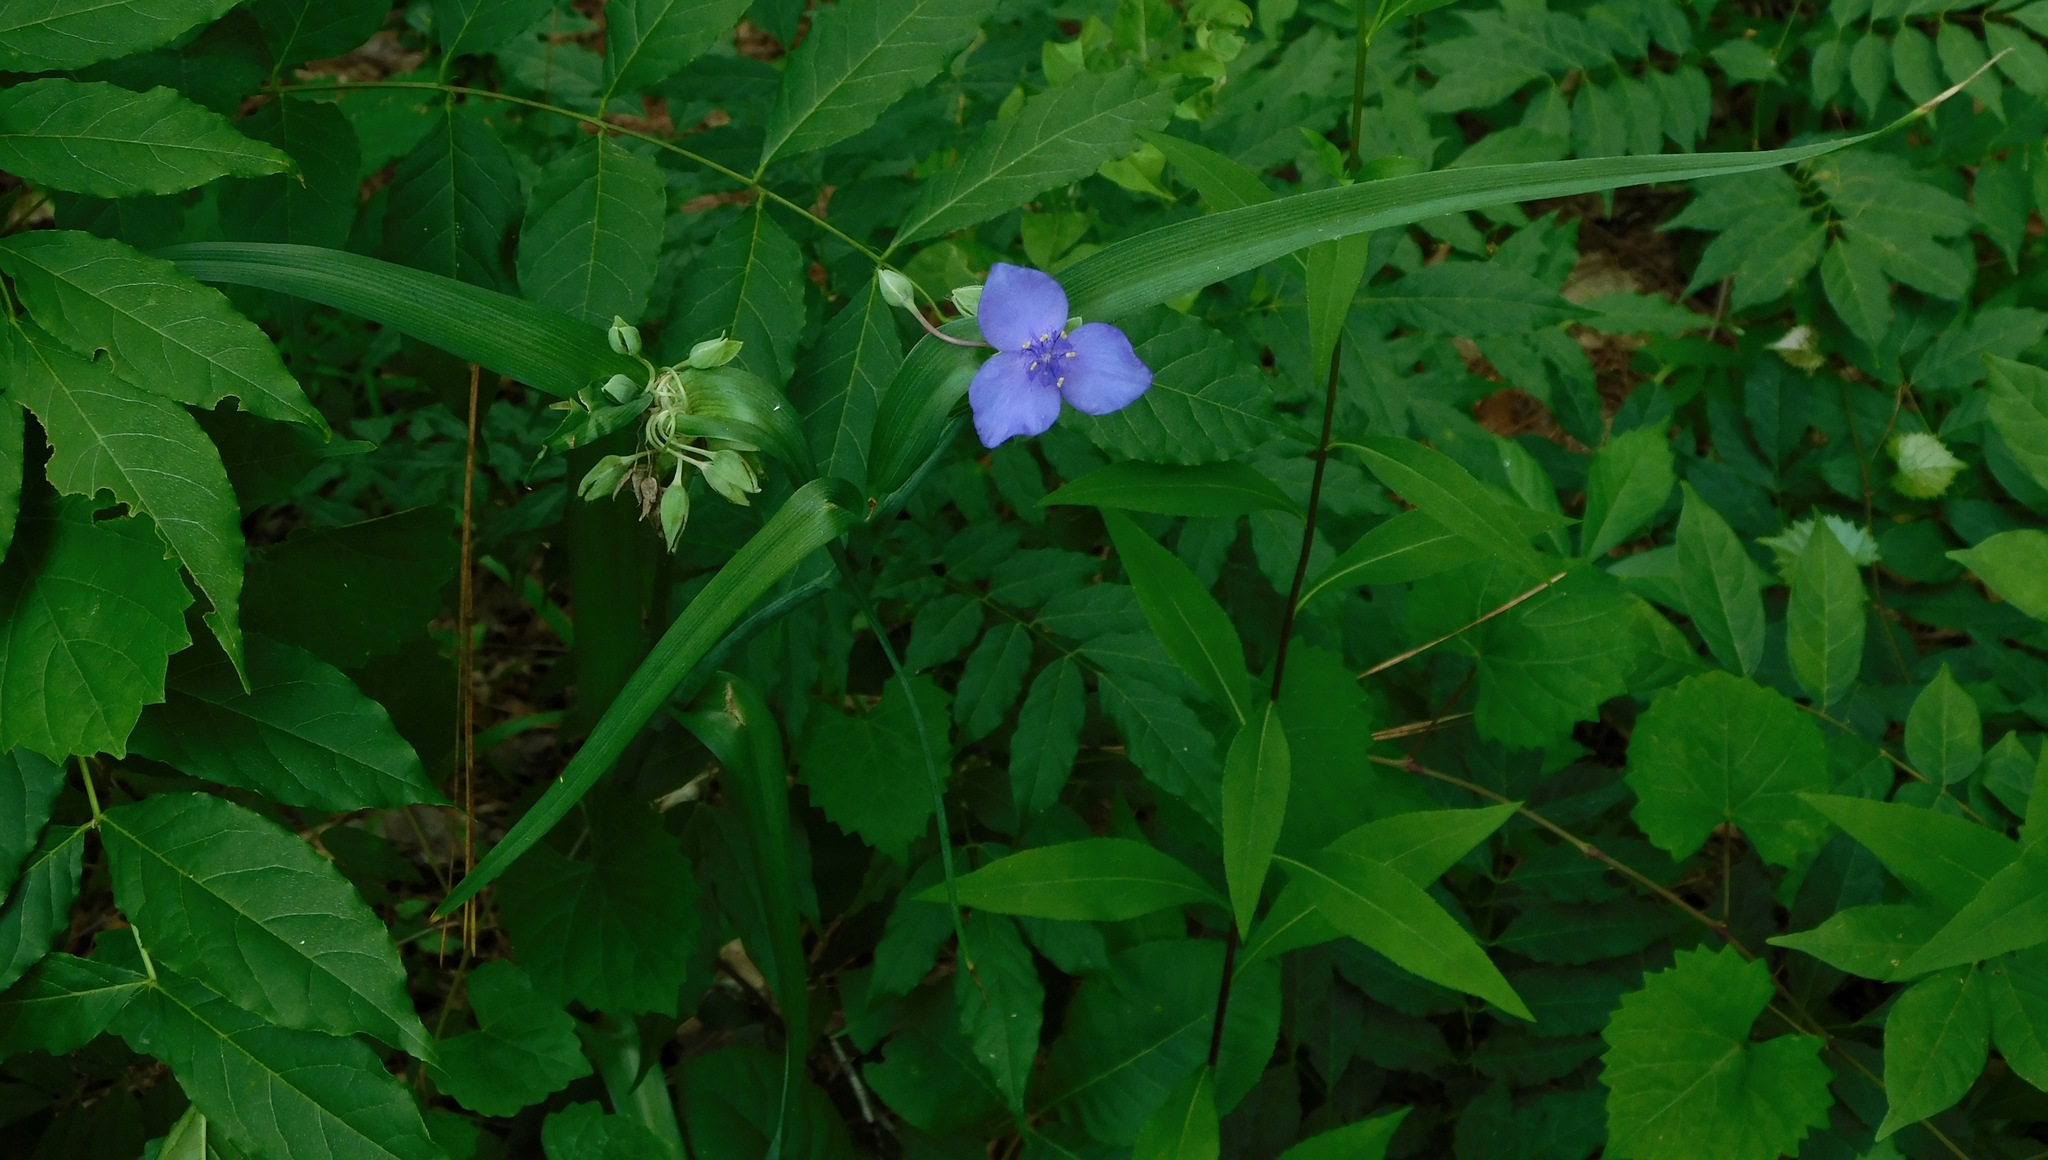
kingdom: Plantae
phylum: Tracheophyta
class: Liliopsida
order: Commelinales
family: Commelinaceae
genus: Tradescantia
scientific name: Tradescantia ohiensis
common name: Ohio spiderwort
